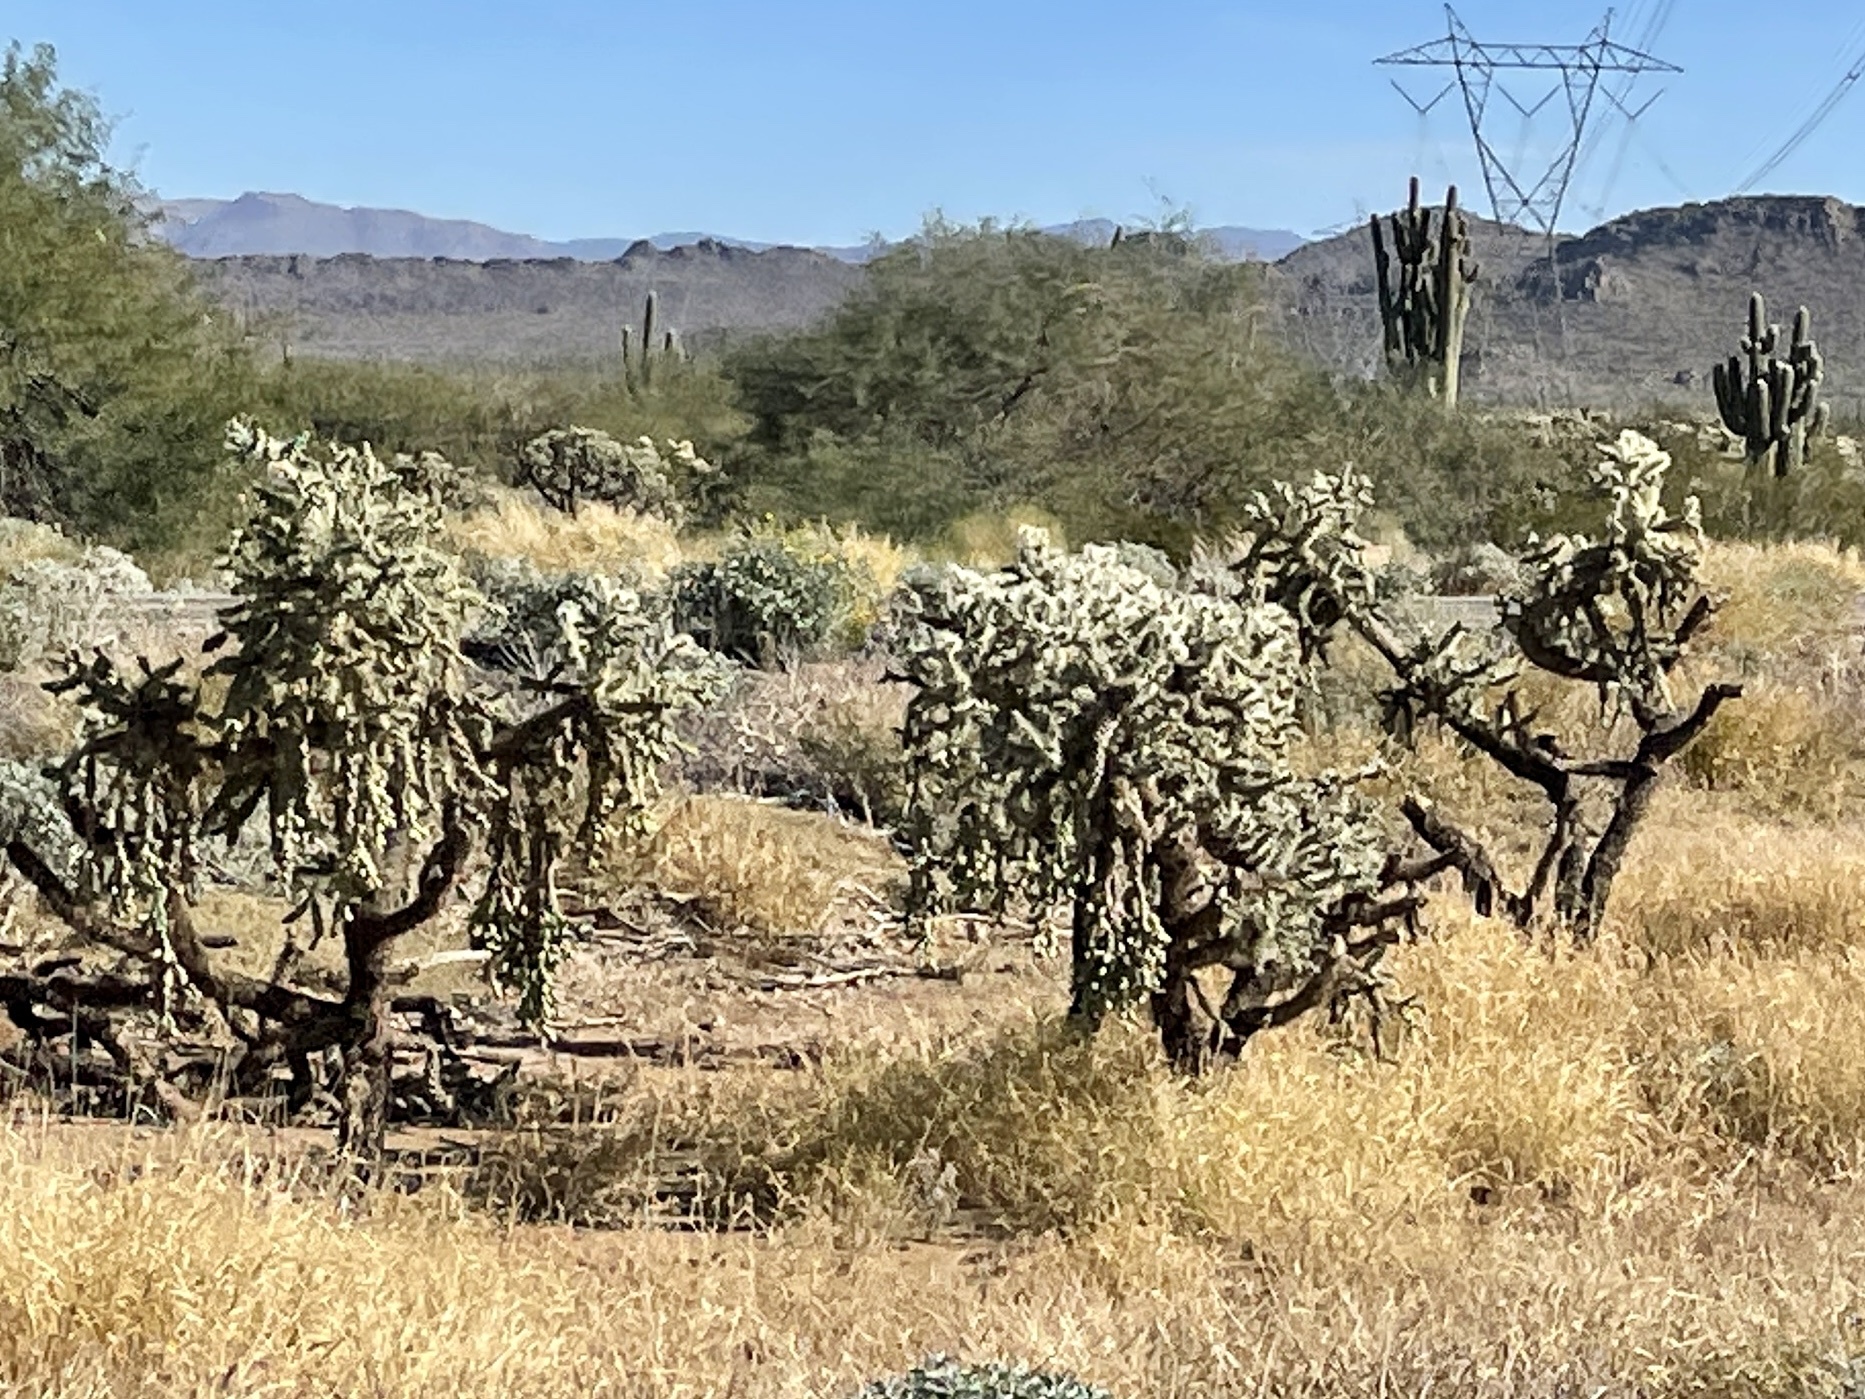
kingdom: Plantae
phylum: Tracheophyta
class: Magnoliopsida
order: Caryophyllales
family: Cactaceae
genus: Cylindropuntia
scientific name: Cylindropuntia fulgida
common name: Jumping cholla
